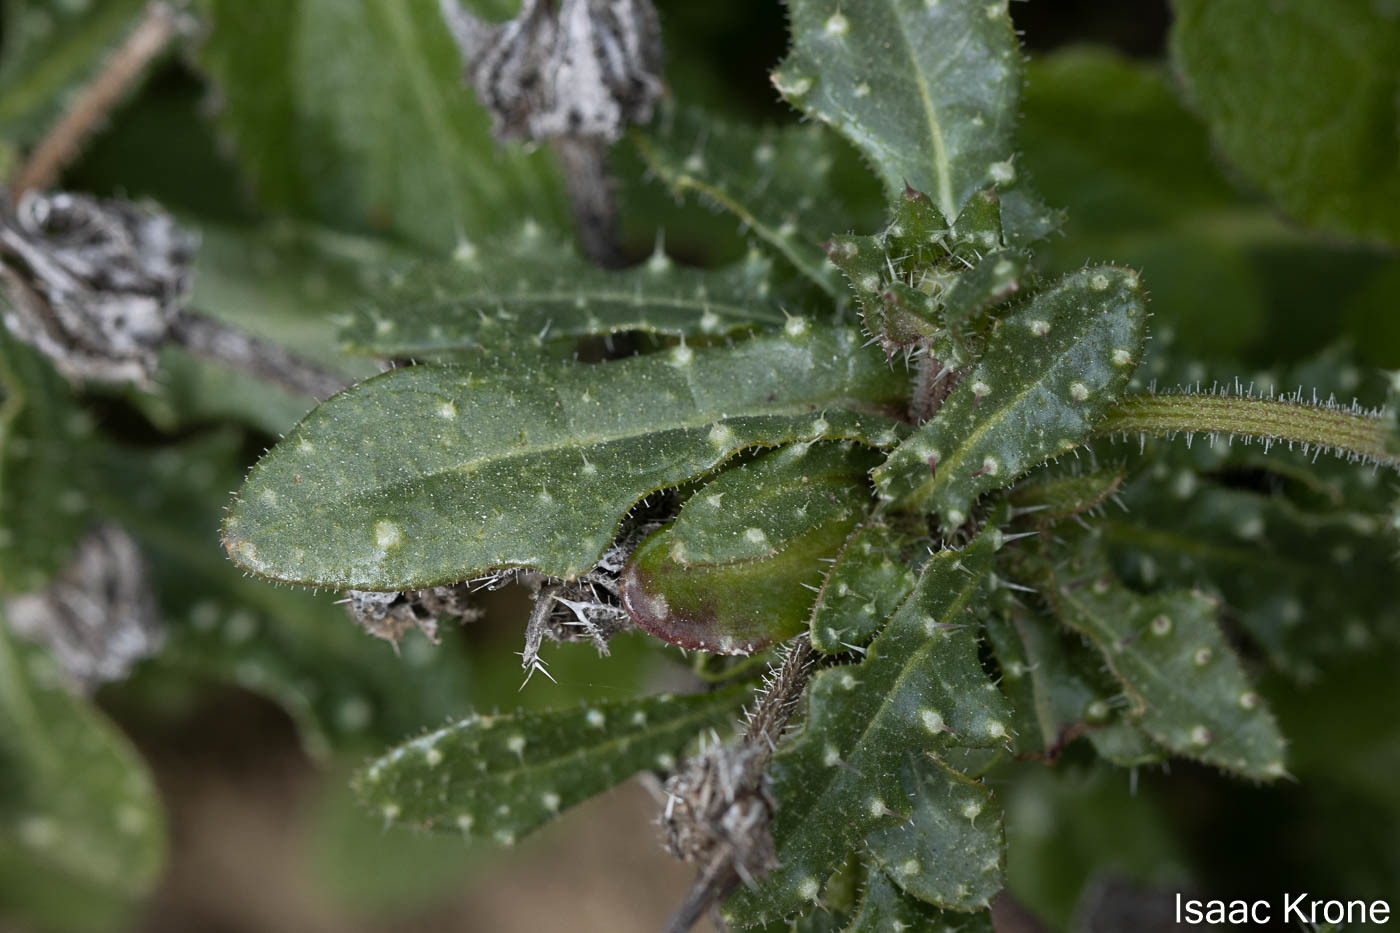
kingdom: Plantae
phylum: Tracheophyta
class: Magnoliopsida
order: Asterales
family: Asteraceae
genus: Helminthotheca
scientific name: Helminthotheca echioides
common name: Ox-tongue
